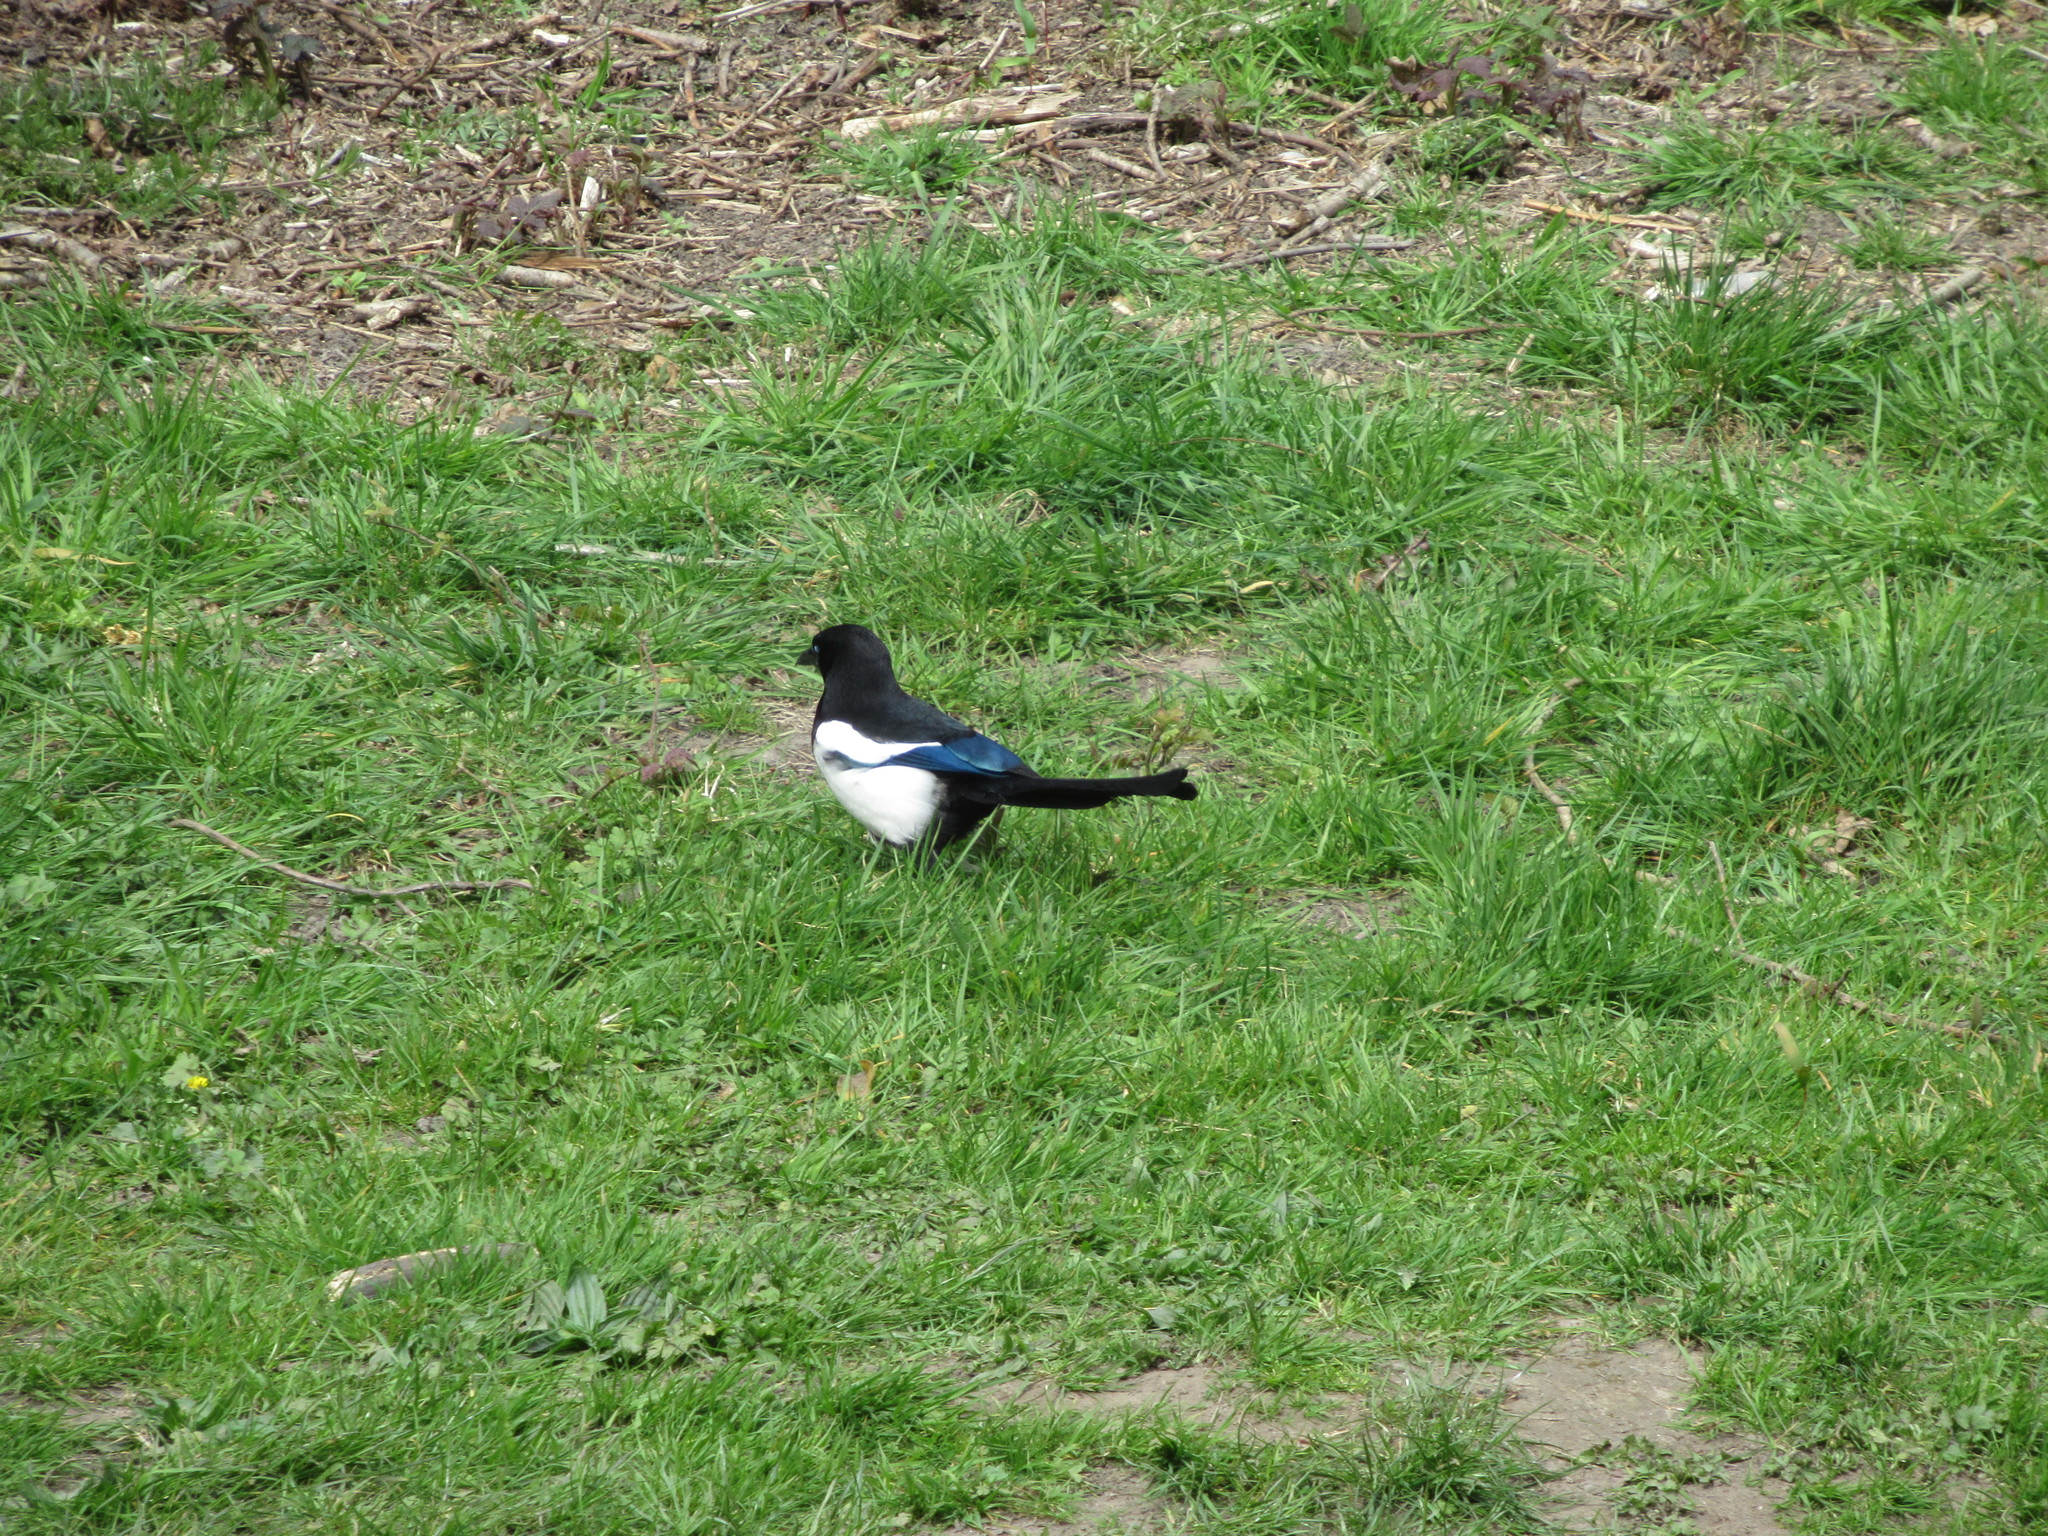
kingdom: Animalia
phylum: Chordata
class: Aves
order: Passeriformes
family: Corvidae
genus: Pica
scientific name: Pica pica
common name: Eurasian magpie
